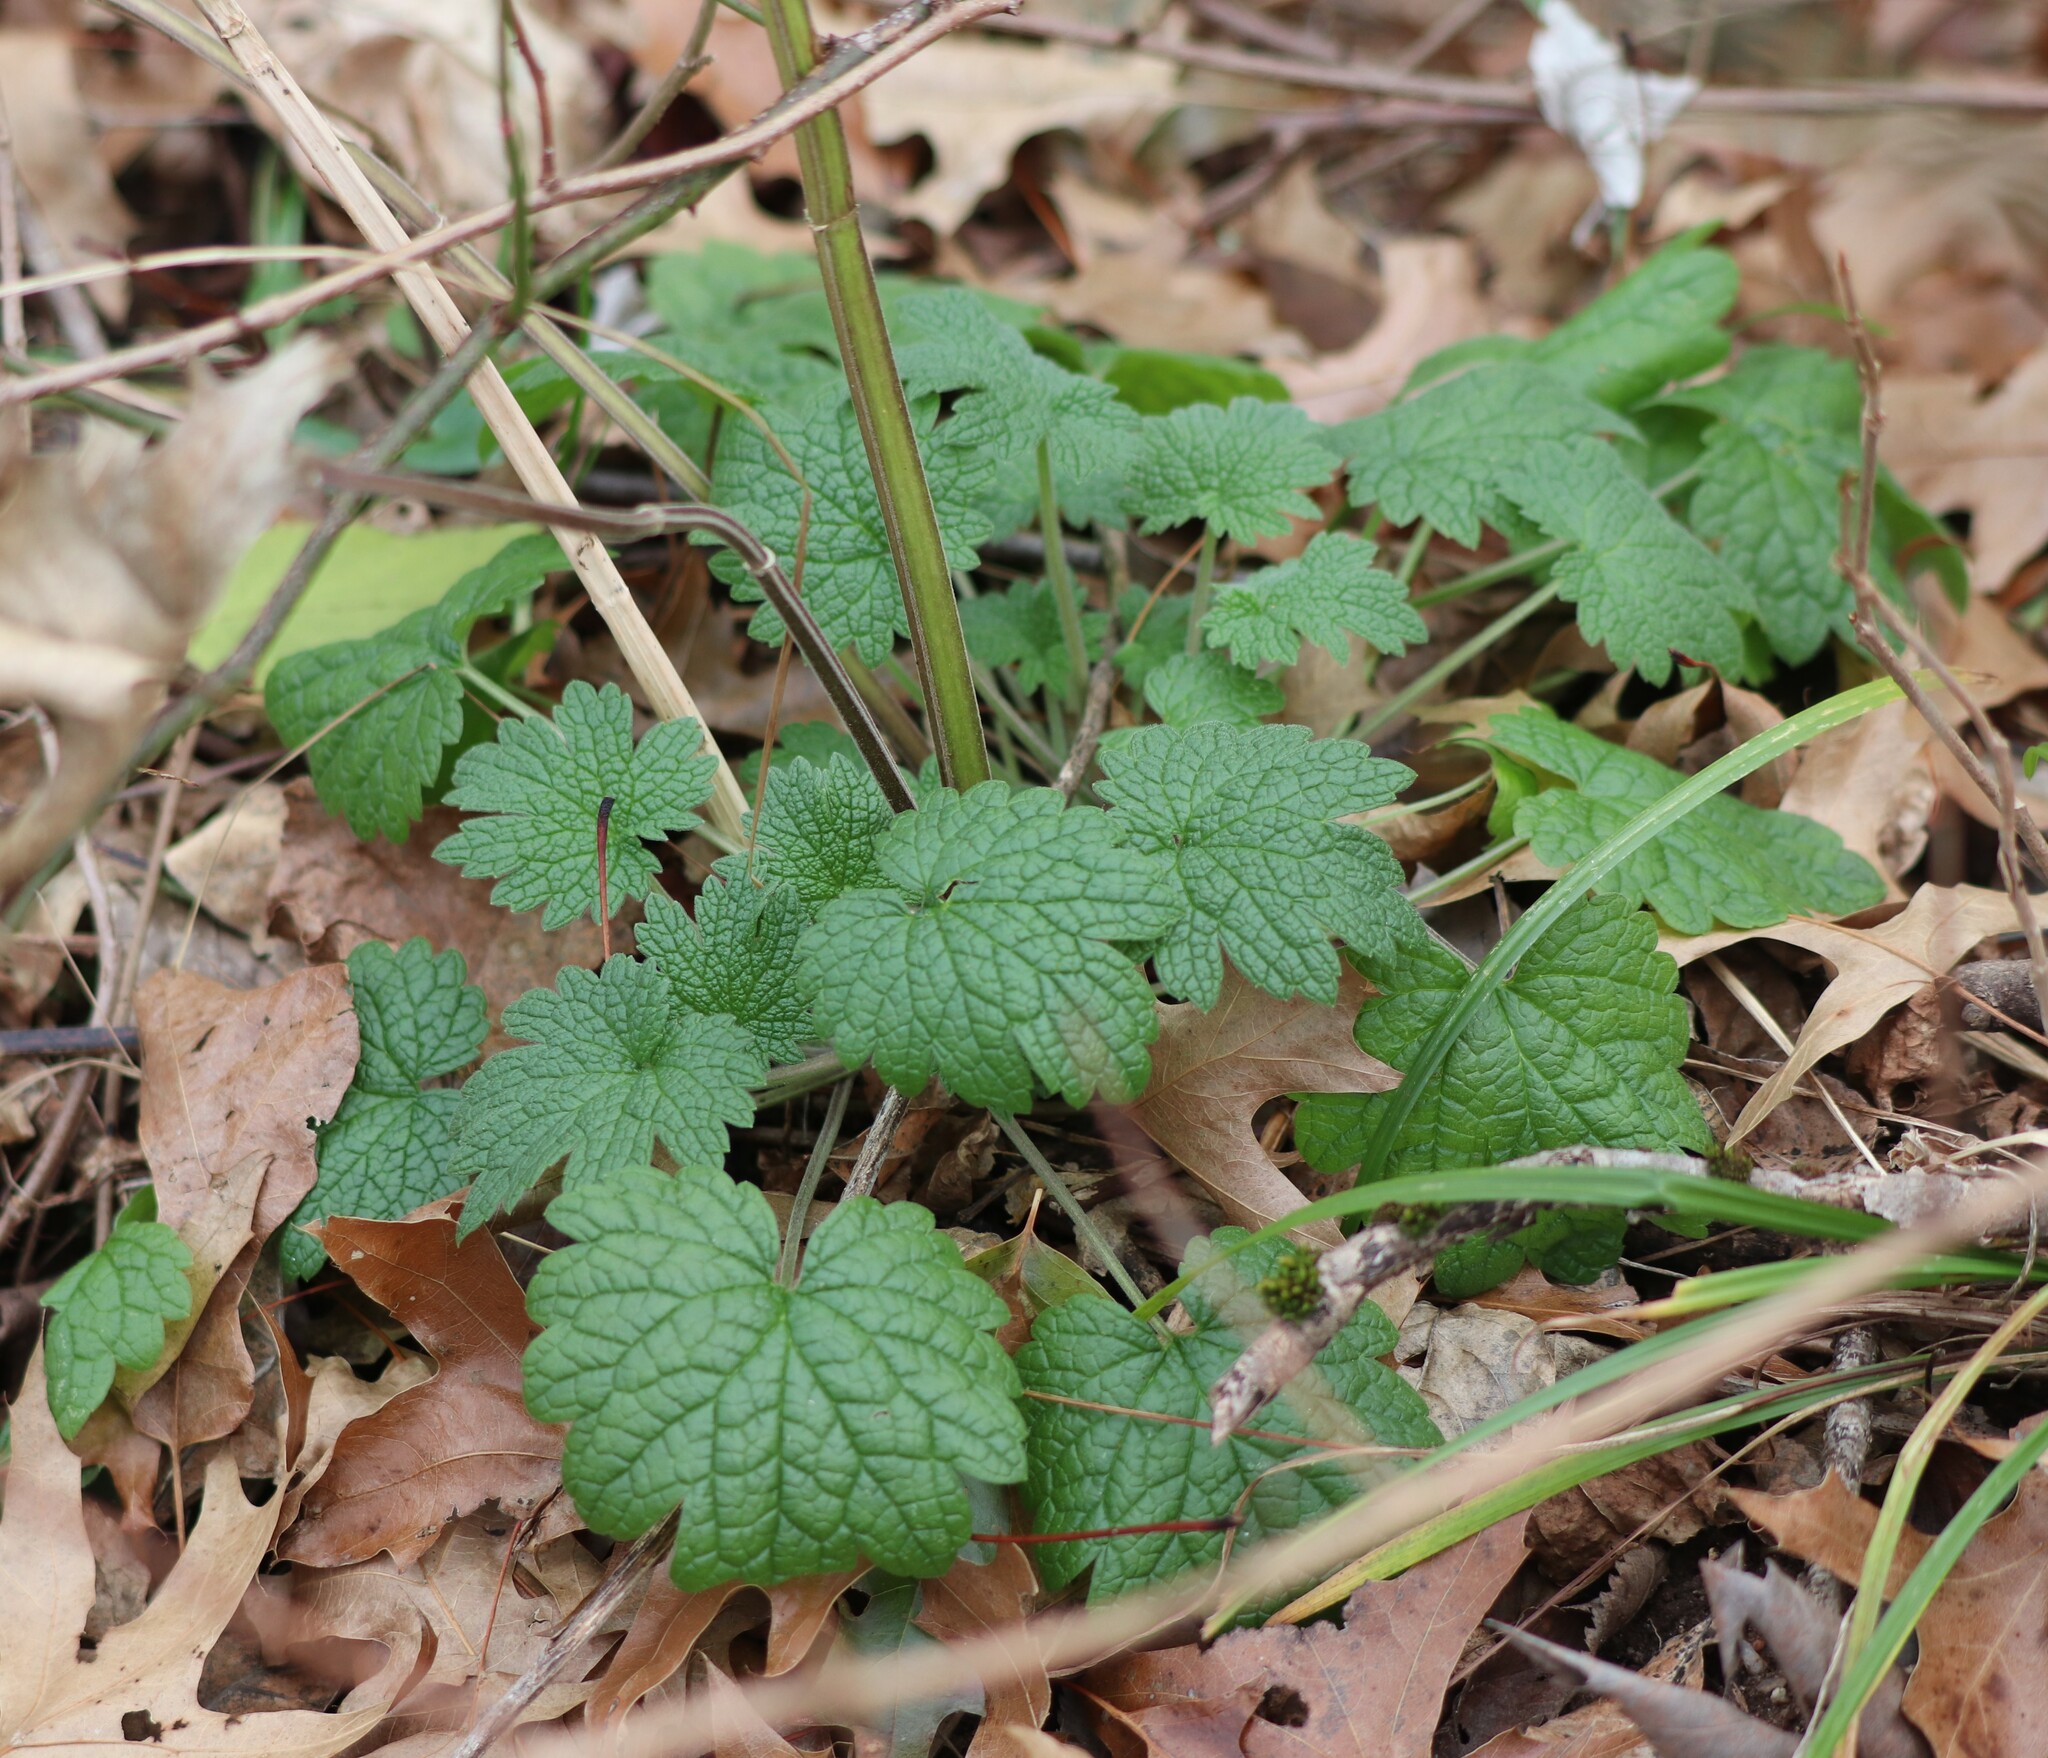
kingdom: Plantae
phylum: Tracheophyta
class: Magnoliopsida
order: Lamiales
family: Lamiaceae
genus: Leonurus
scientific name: Leonurus cardiaca
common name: Motherwort
